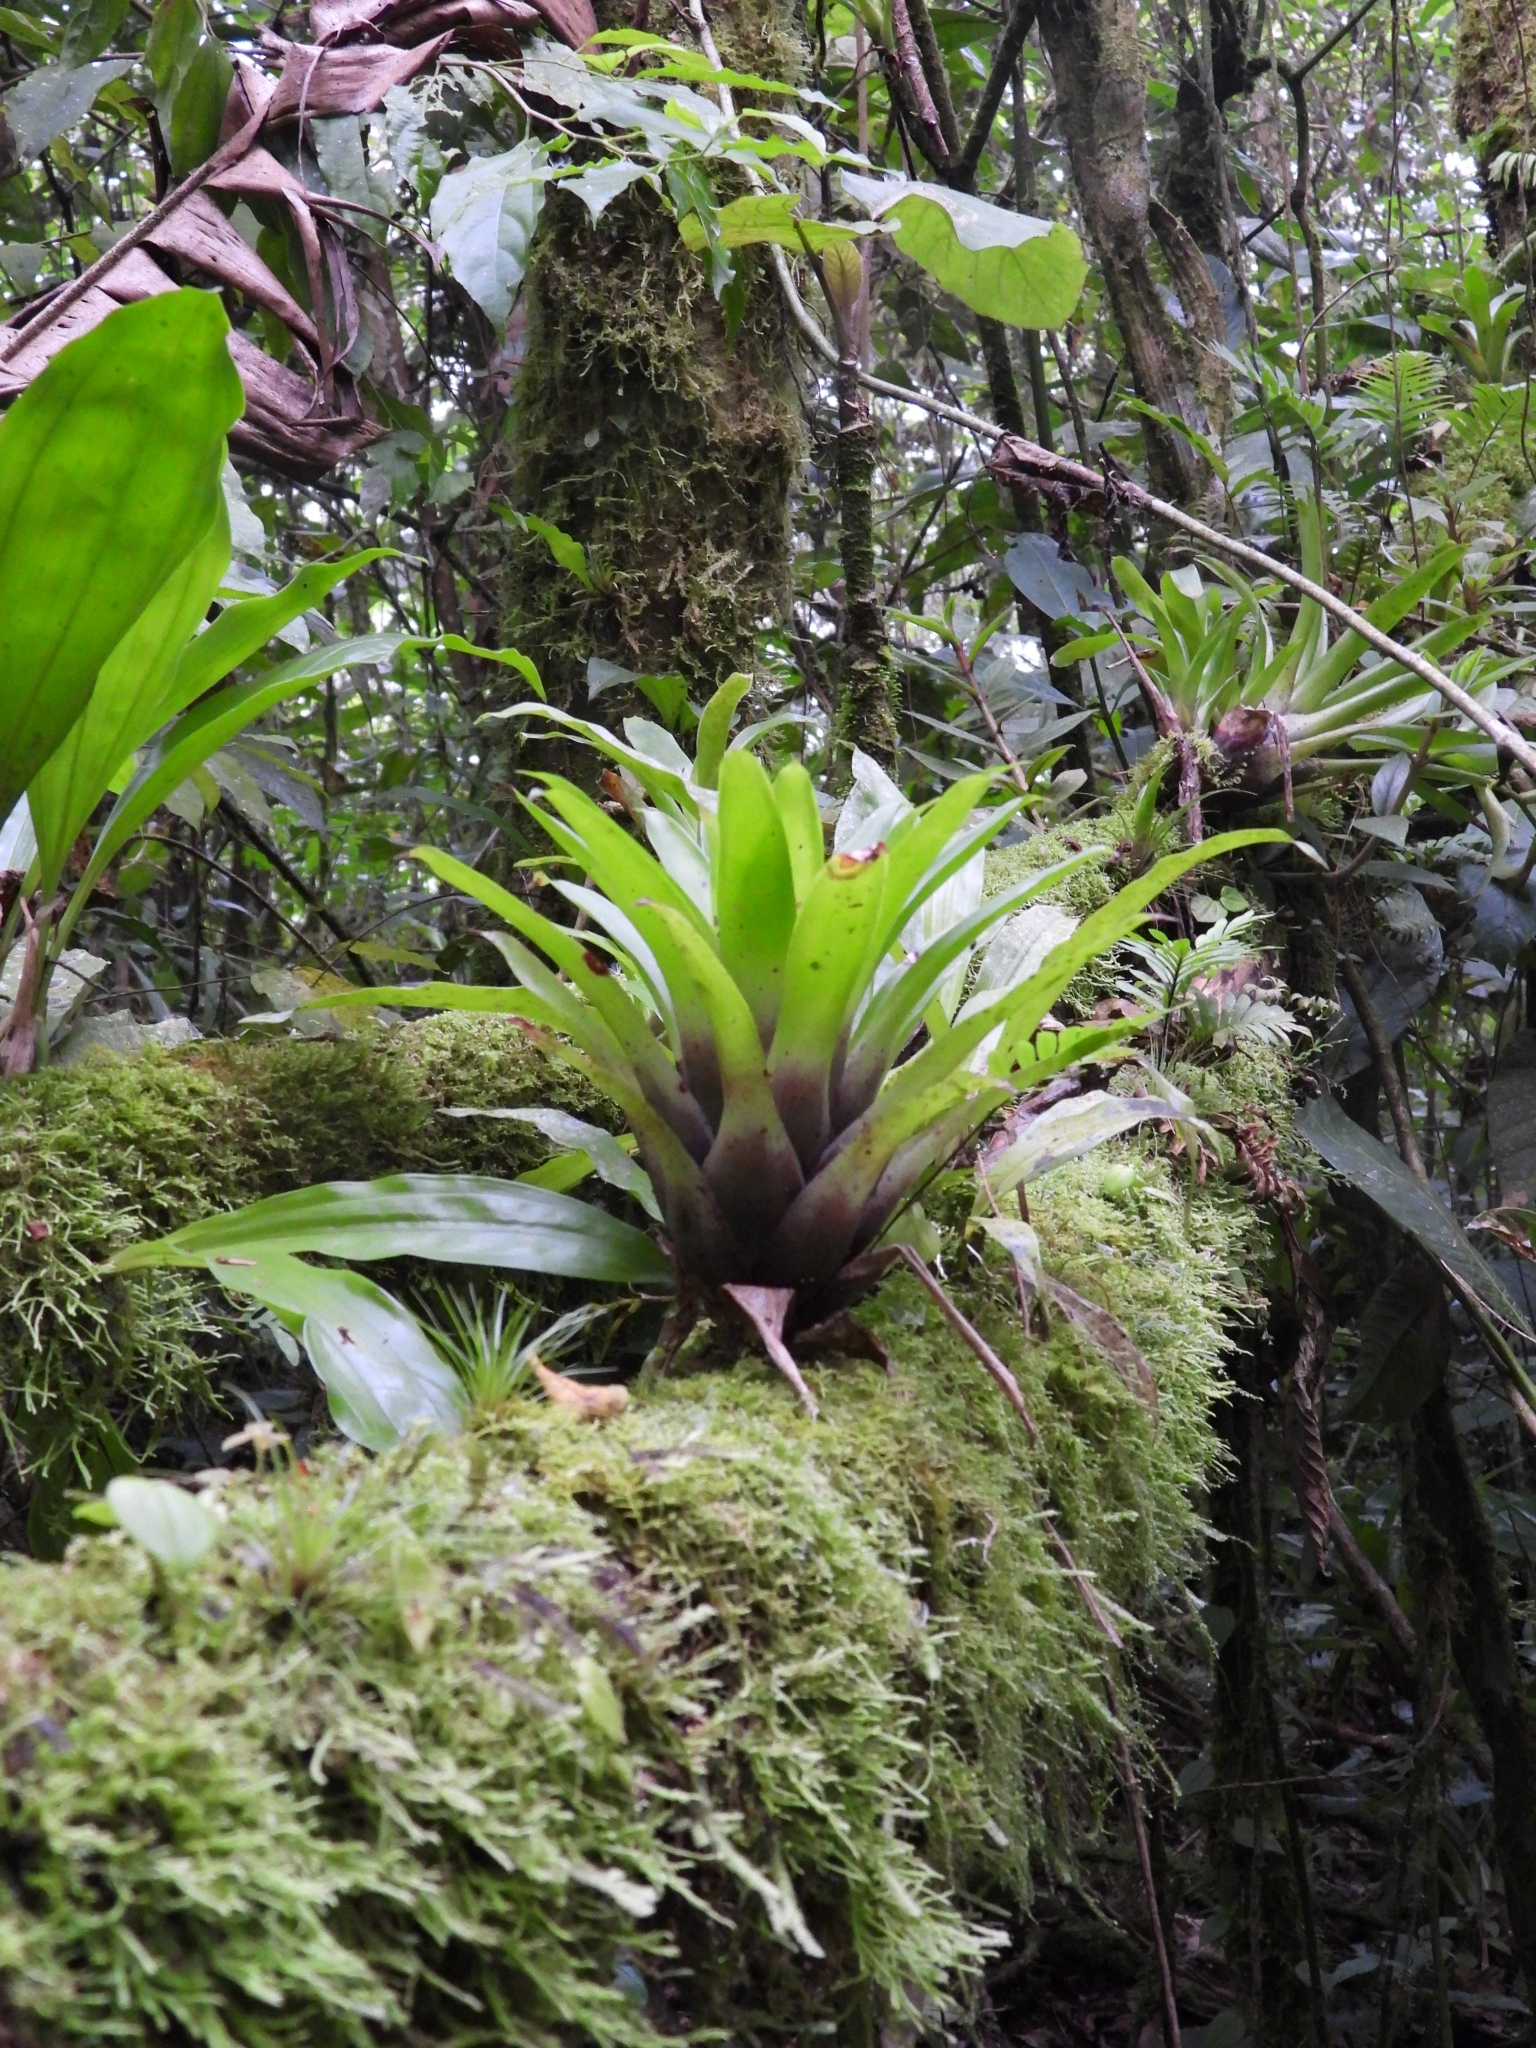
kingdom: Plantae
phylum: Tracheophyta
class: Liliopsida
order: Poales
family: Bromeliaceae
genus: Tillandsia
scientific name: Tillandsia multicaulis
